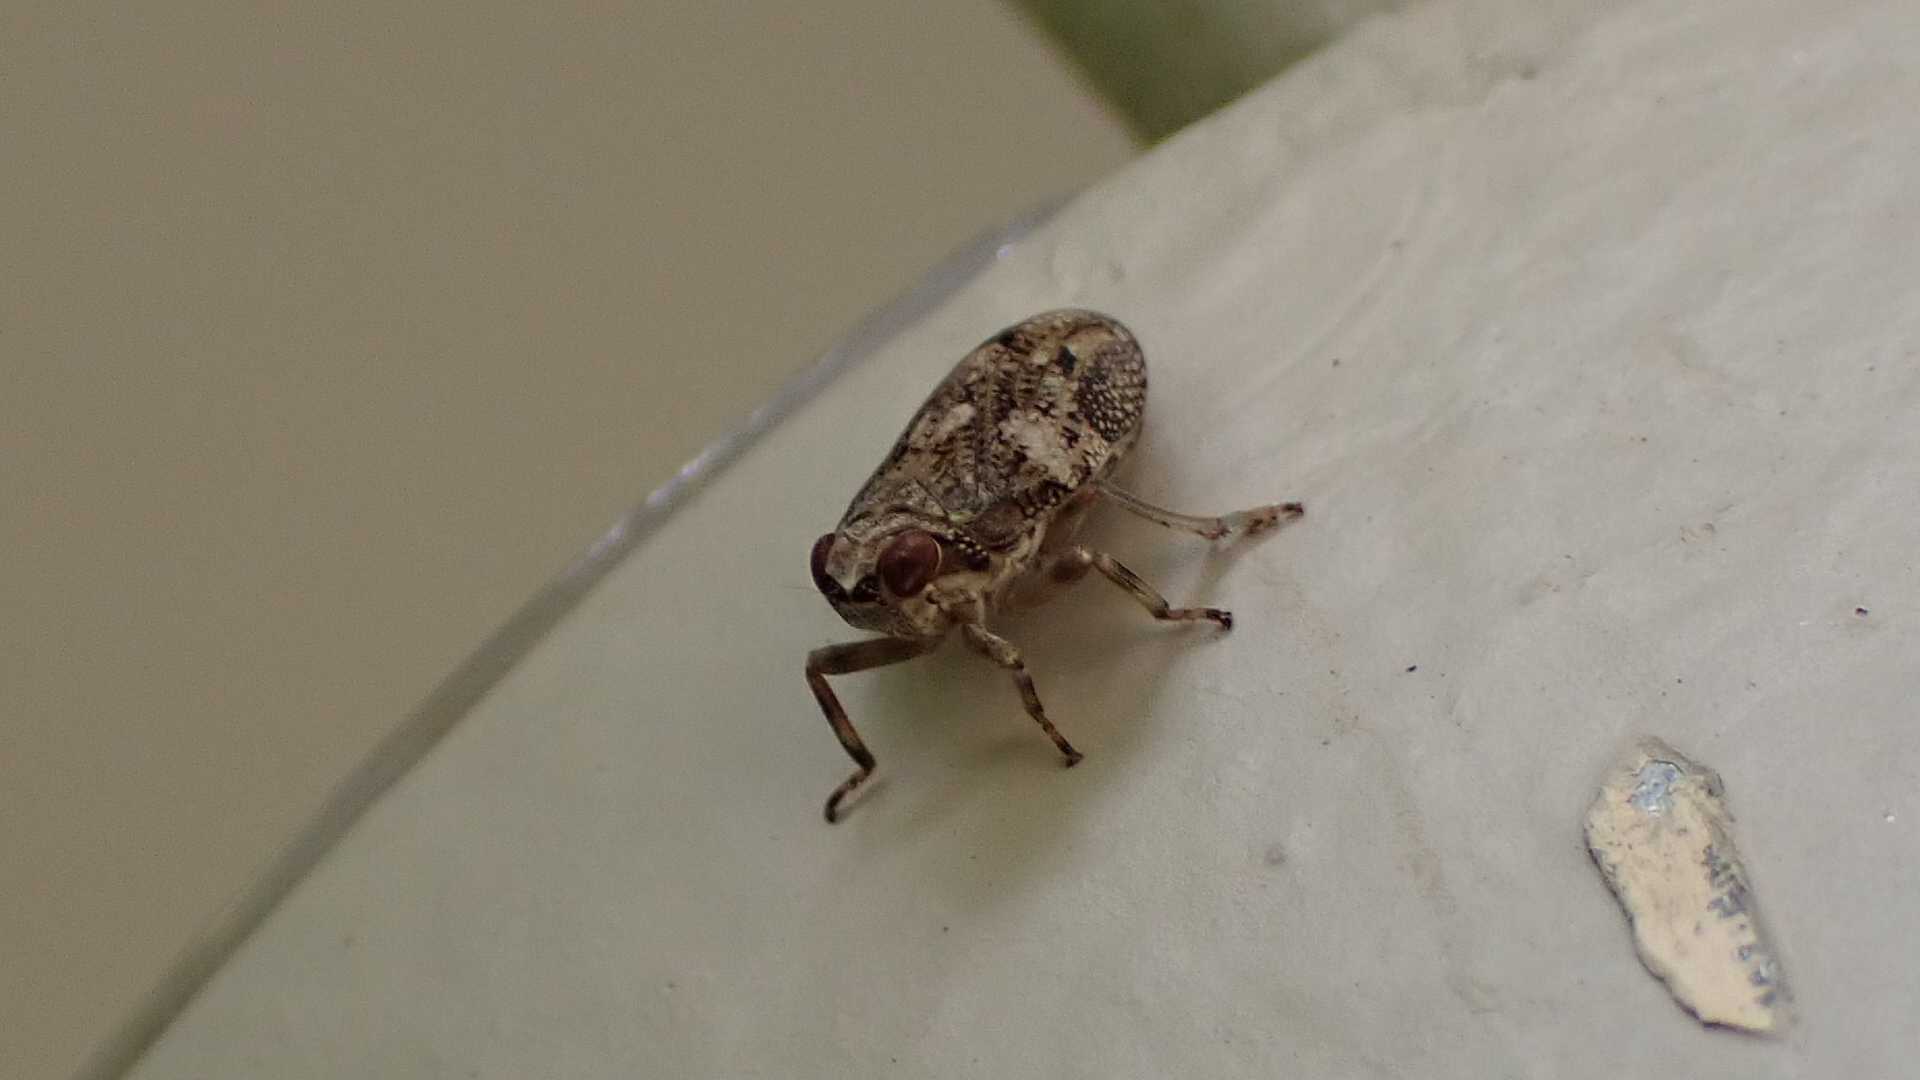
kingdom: Animalia
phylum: Arthropoda
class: Insecta
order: Hemiptera
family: Issidae
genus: Issus
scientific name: Issus coleoptratus
